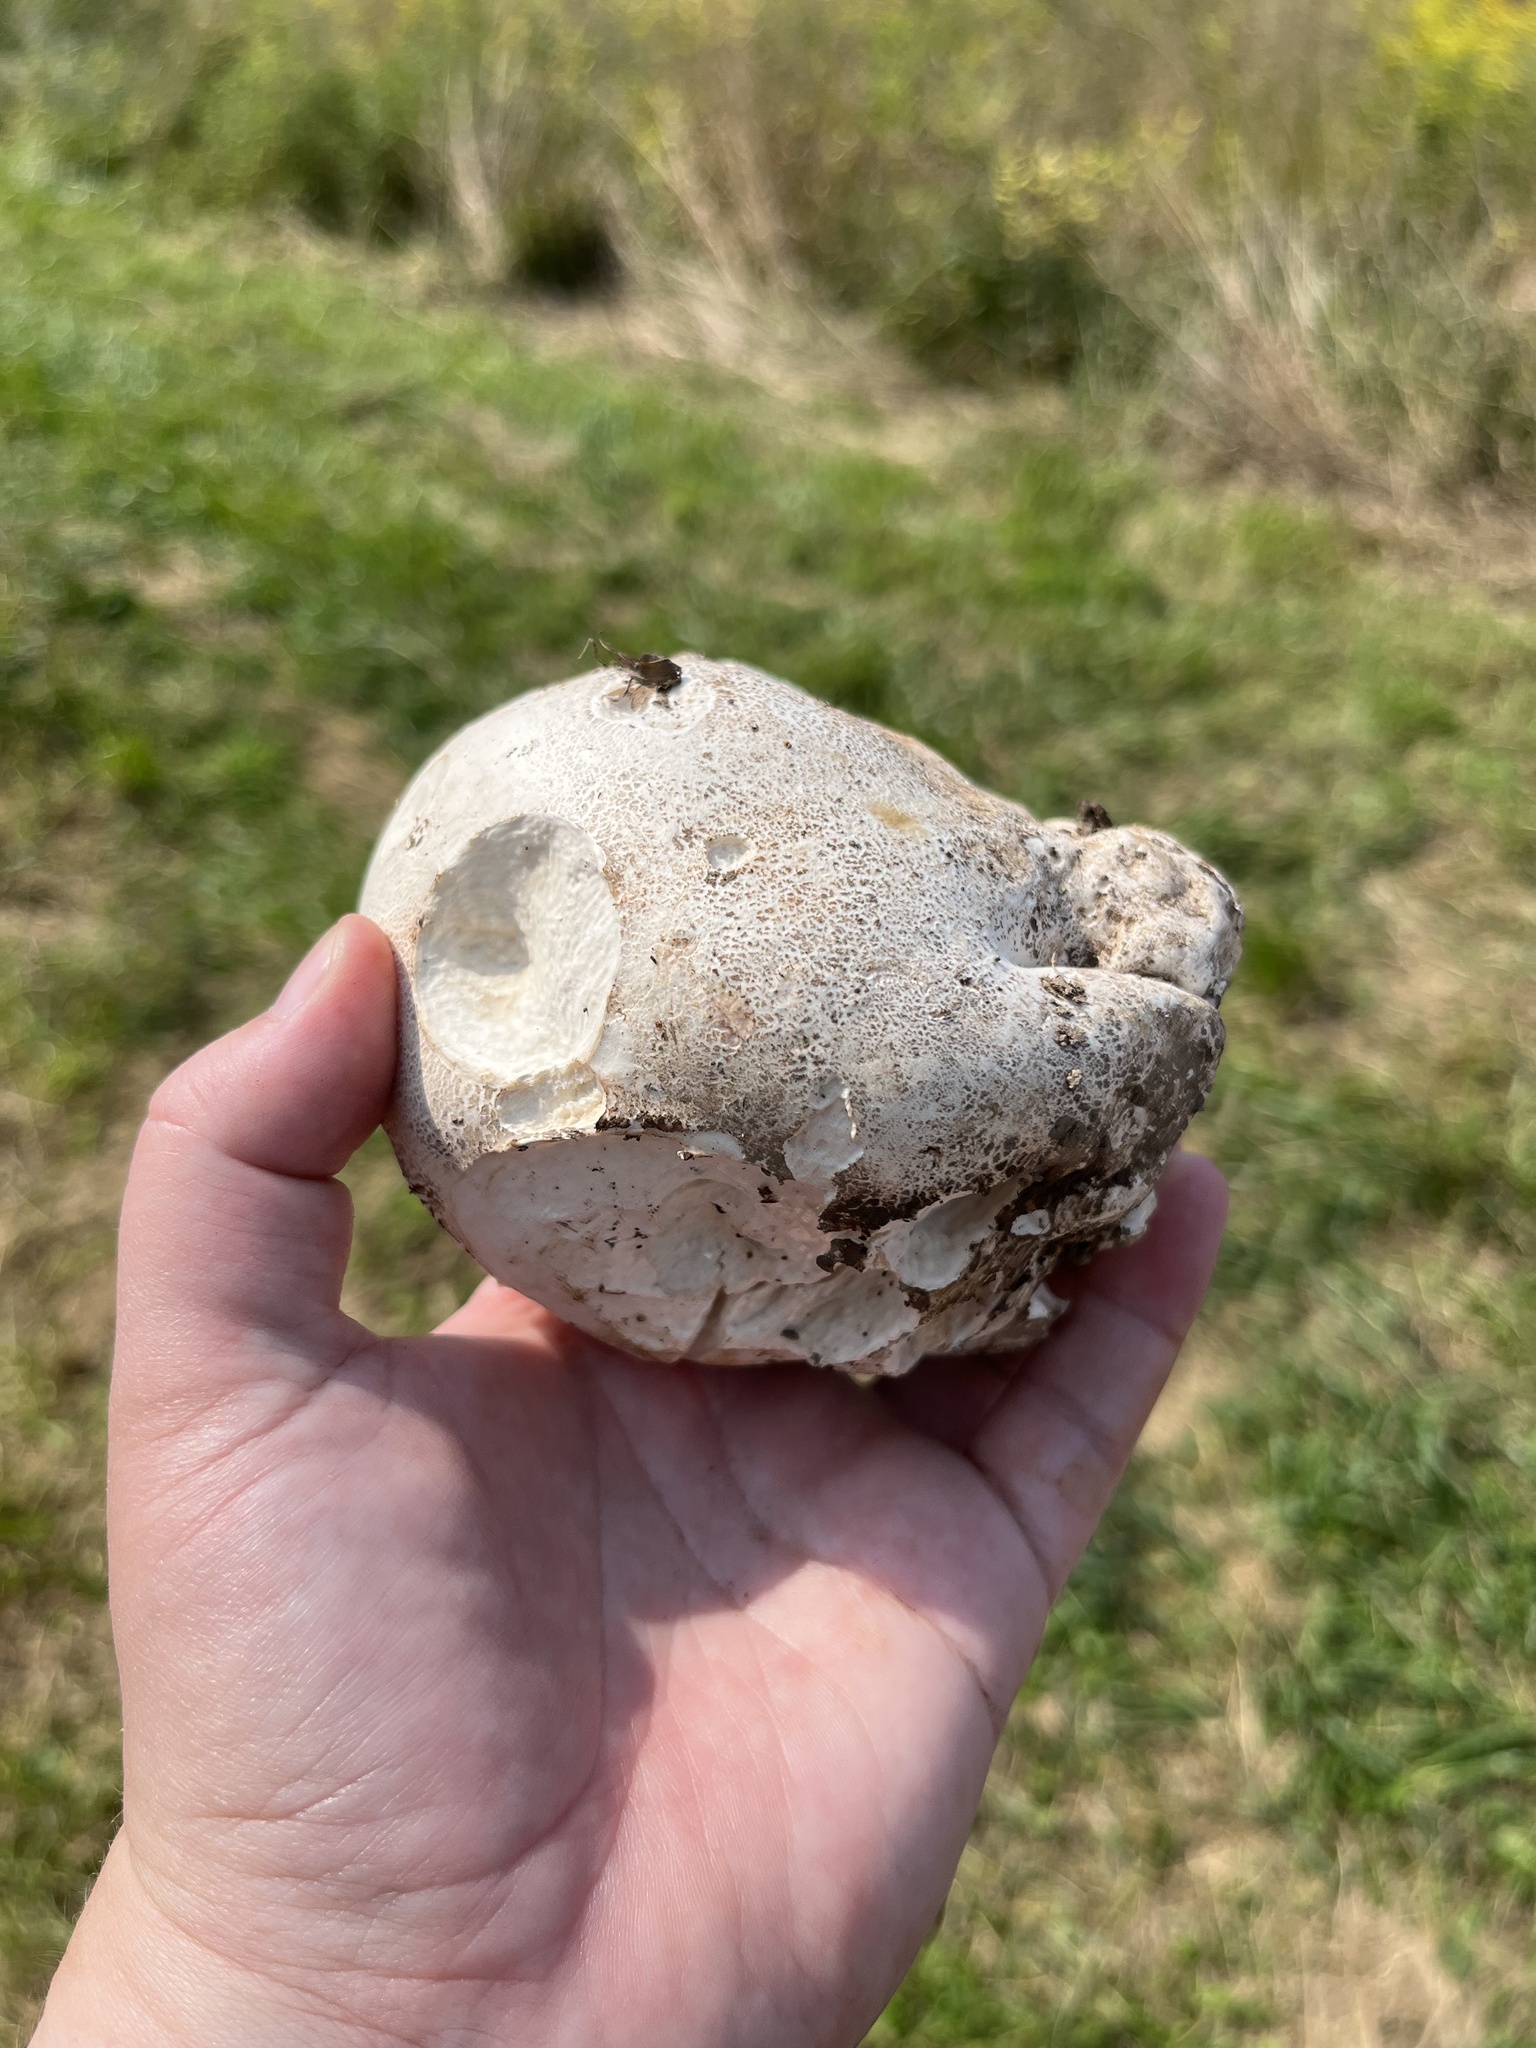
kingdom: Fungi
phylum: Basidiomycota
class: Agaricomycetes
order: Agaricales
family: Lycoperdaceae
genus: Calvatia
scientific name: Calvatia gigantea
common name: Giant puffball
